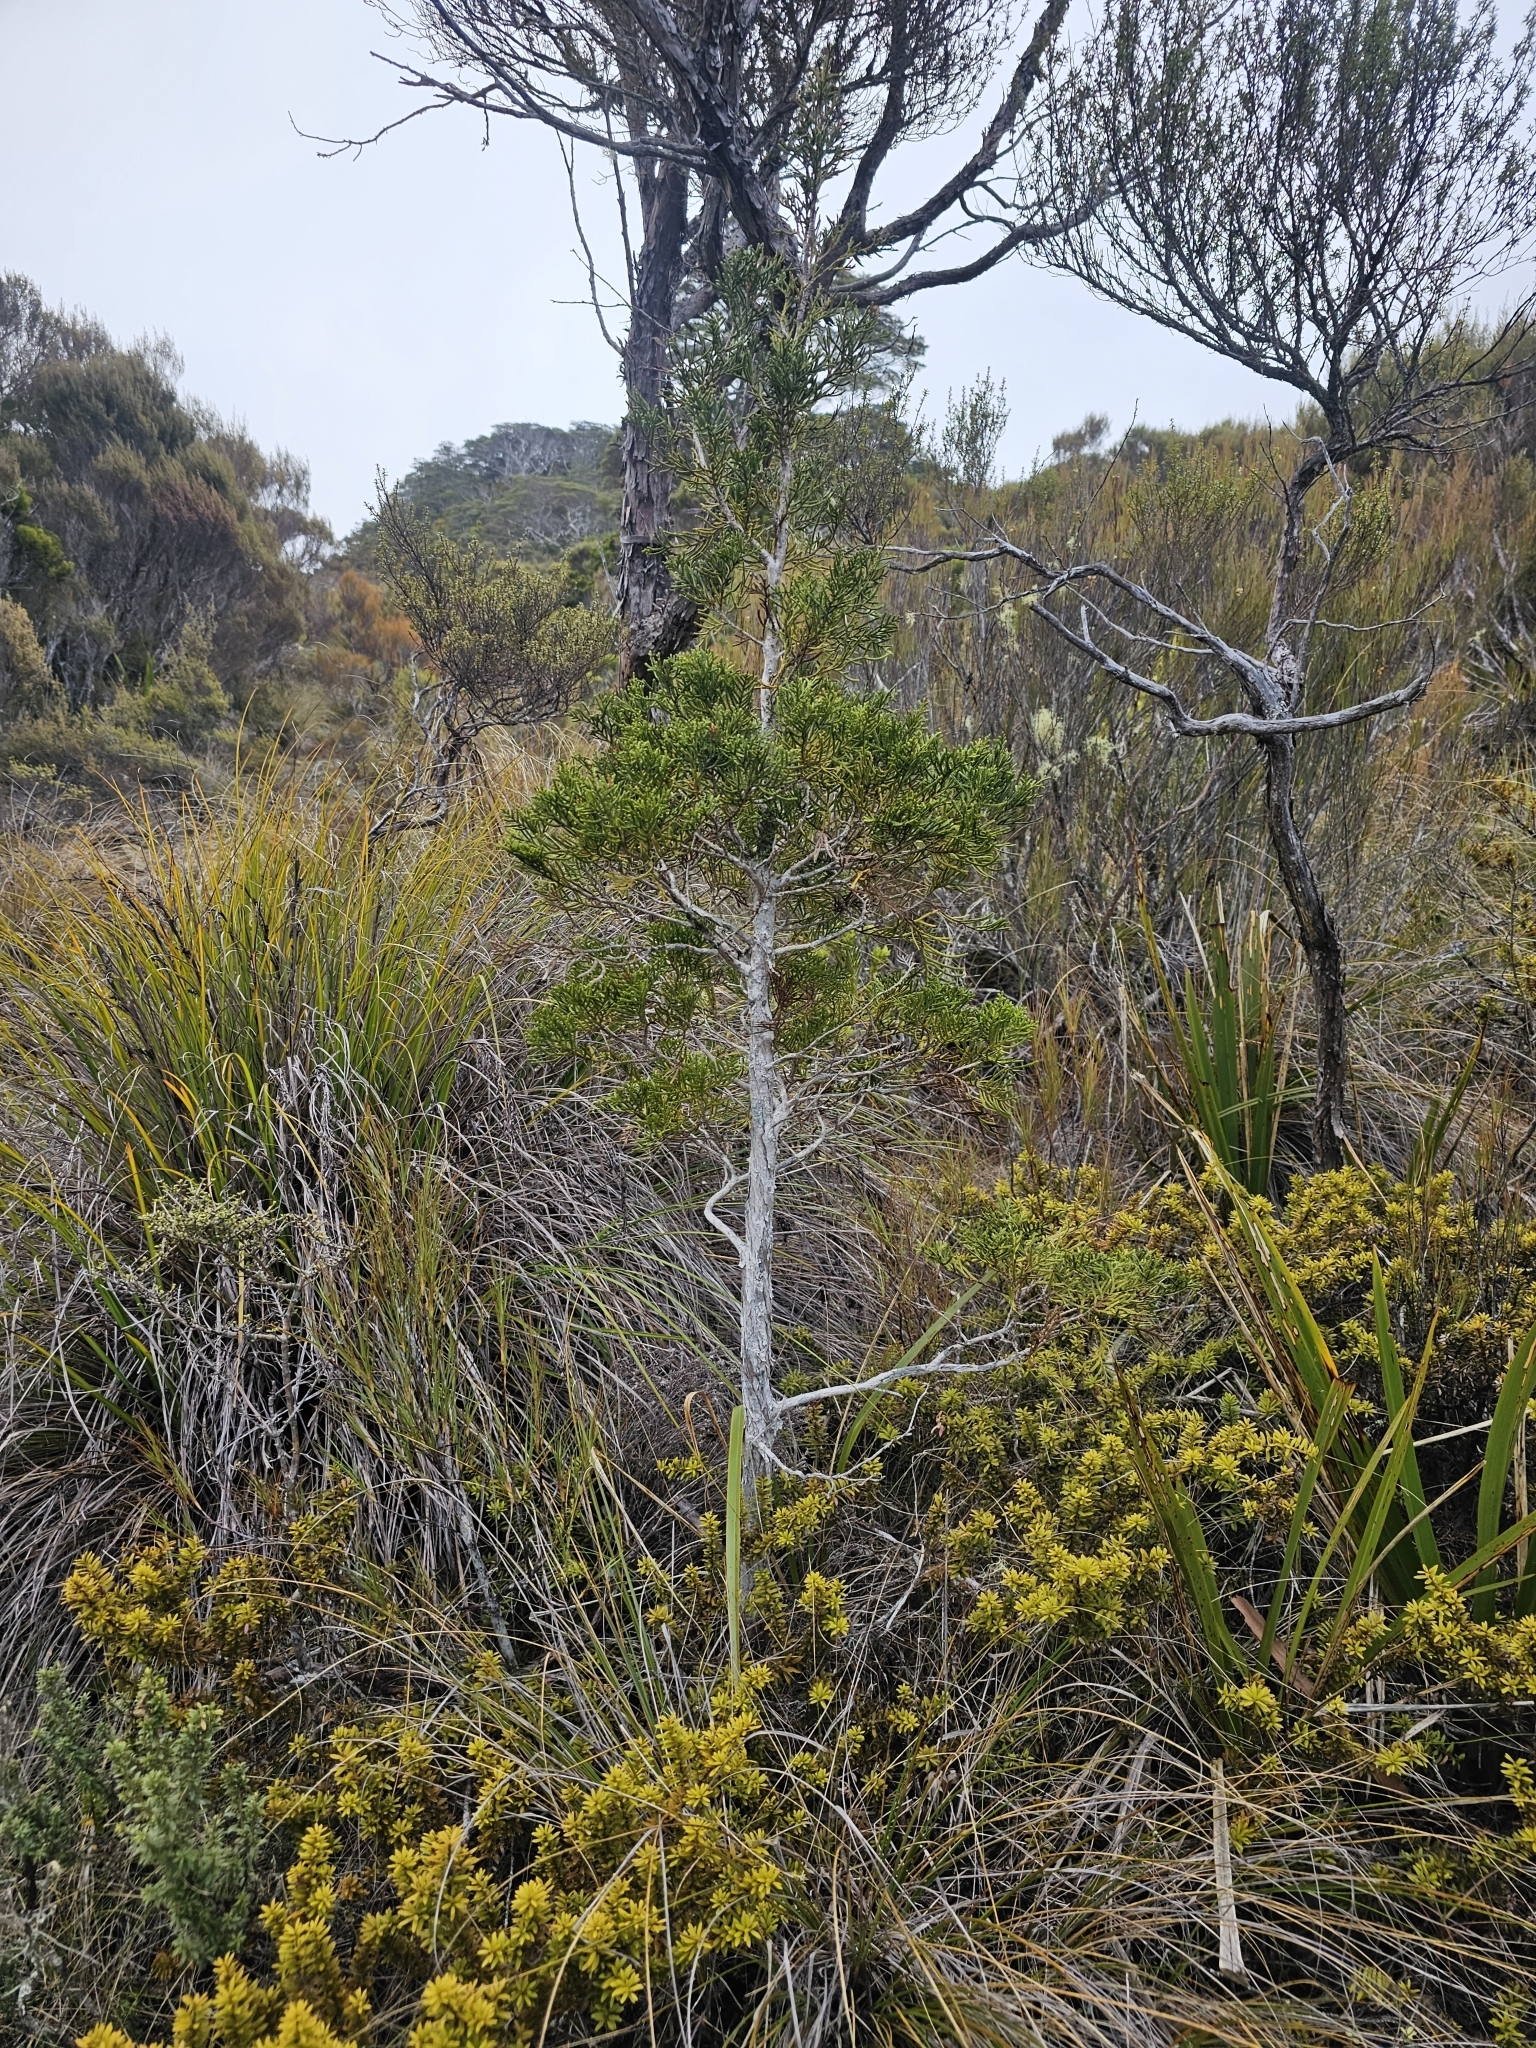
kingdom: Plantae
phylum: Tracheophyta
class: Pinopsida
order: Pinales
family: Cupressaceae
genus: Libocedrus
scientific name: Libocedrus bidwillii
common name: Cedar
